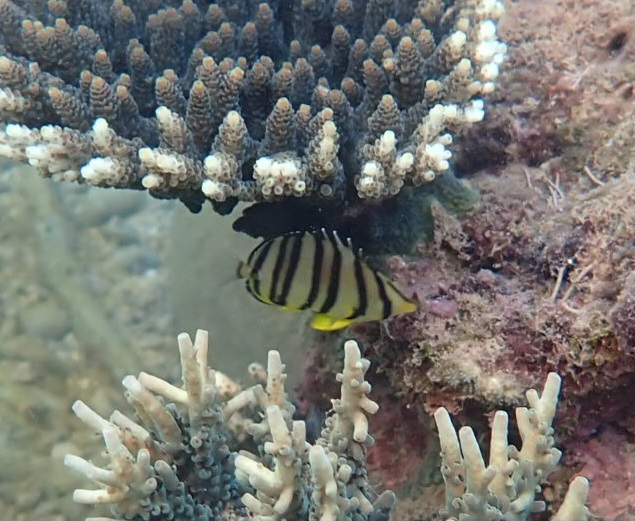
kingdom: Animalia
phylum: Chordata
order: Perciformes
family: Chaetodontidae
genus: Chaetodon
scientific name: Chaetodon octofasciatus
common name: Eightband butterflyfish
